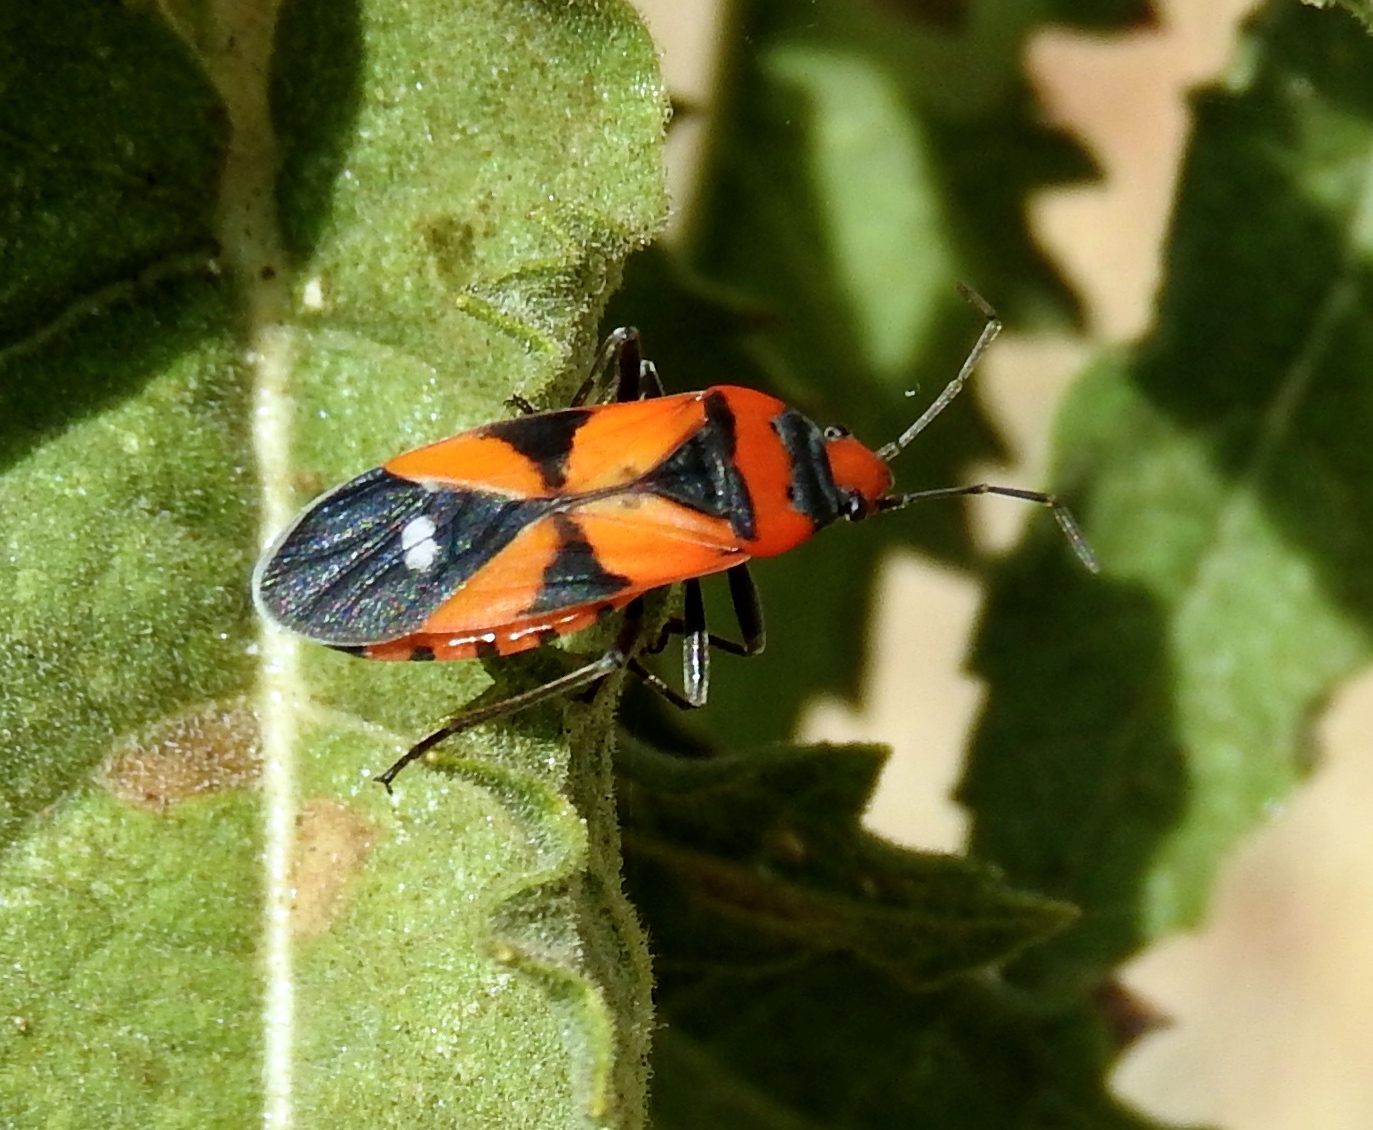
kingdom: Animalia
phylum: Arthropoda
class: Insecta
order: Hemiptera
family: Lygaeidae
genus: Lygaeus
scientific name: Lygaeus analis
